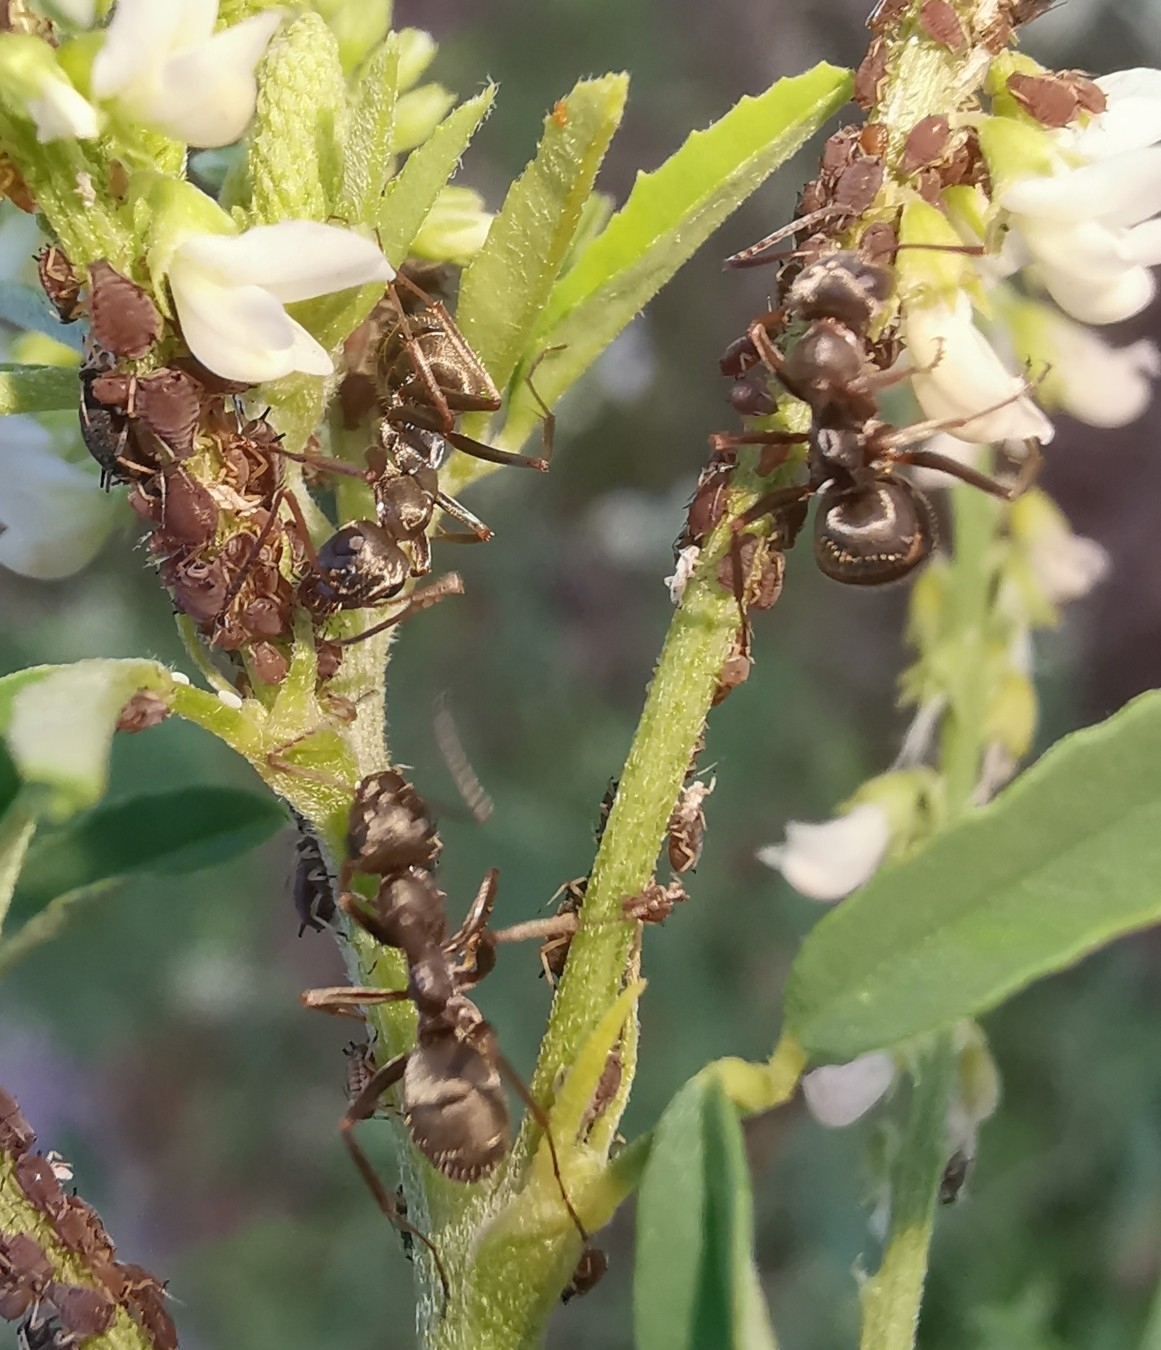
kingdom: Animalia
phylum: Arthropoda
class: Insecta
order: Hymenoptera
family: Formicidae
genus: Formica
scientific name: Formica cinerea
